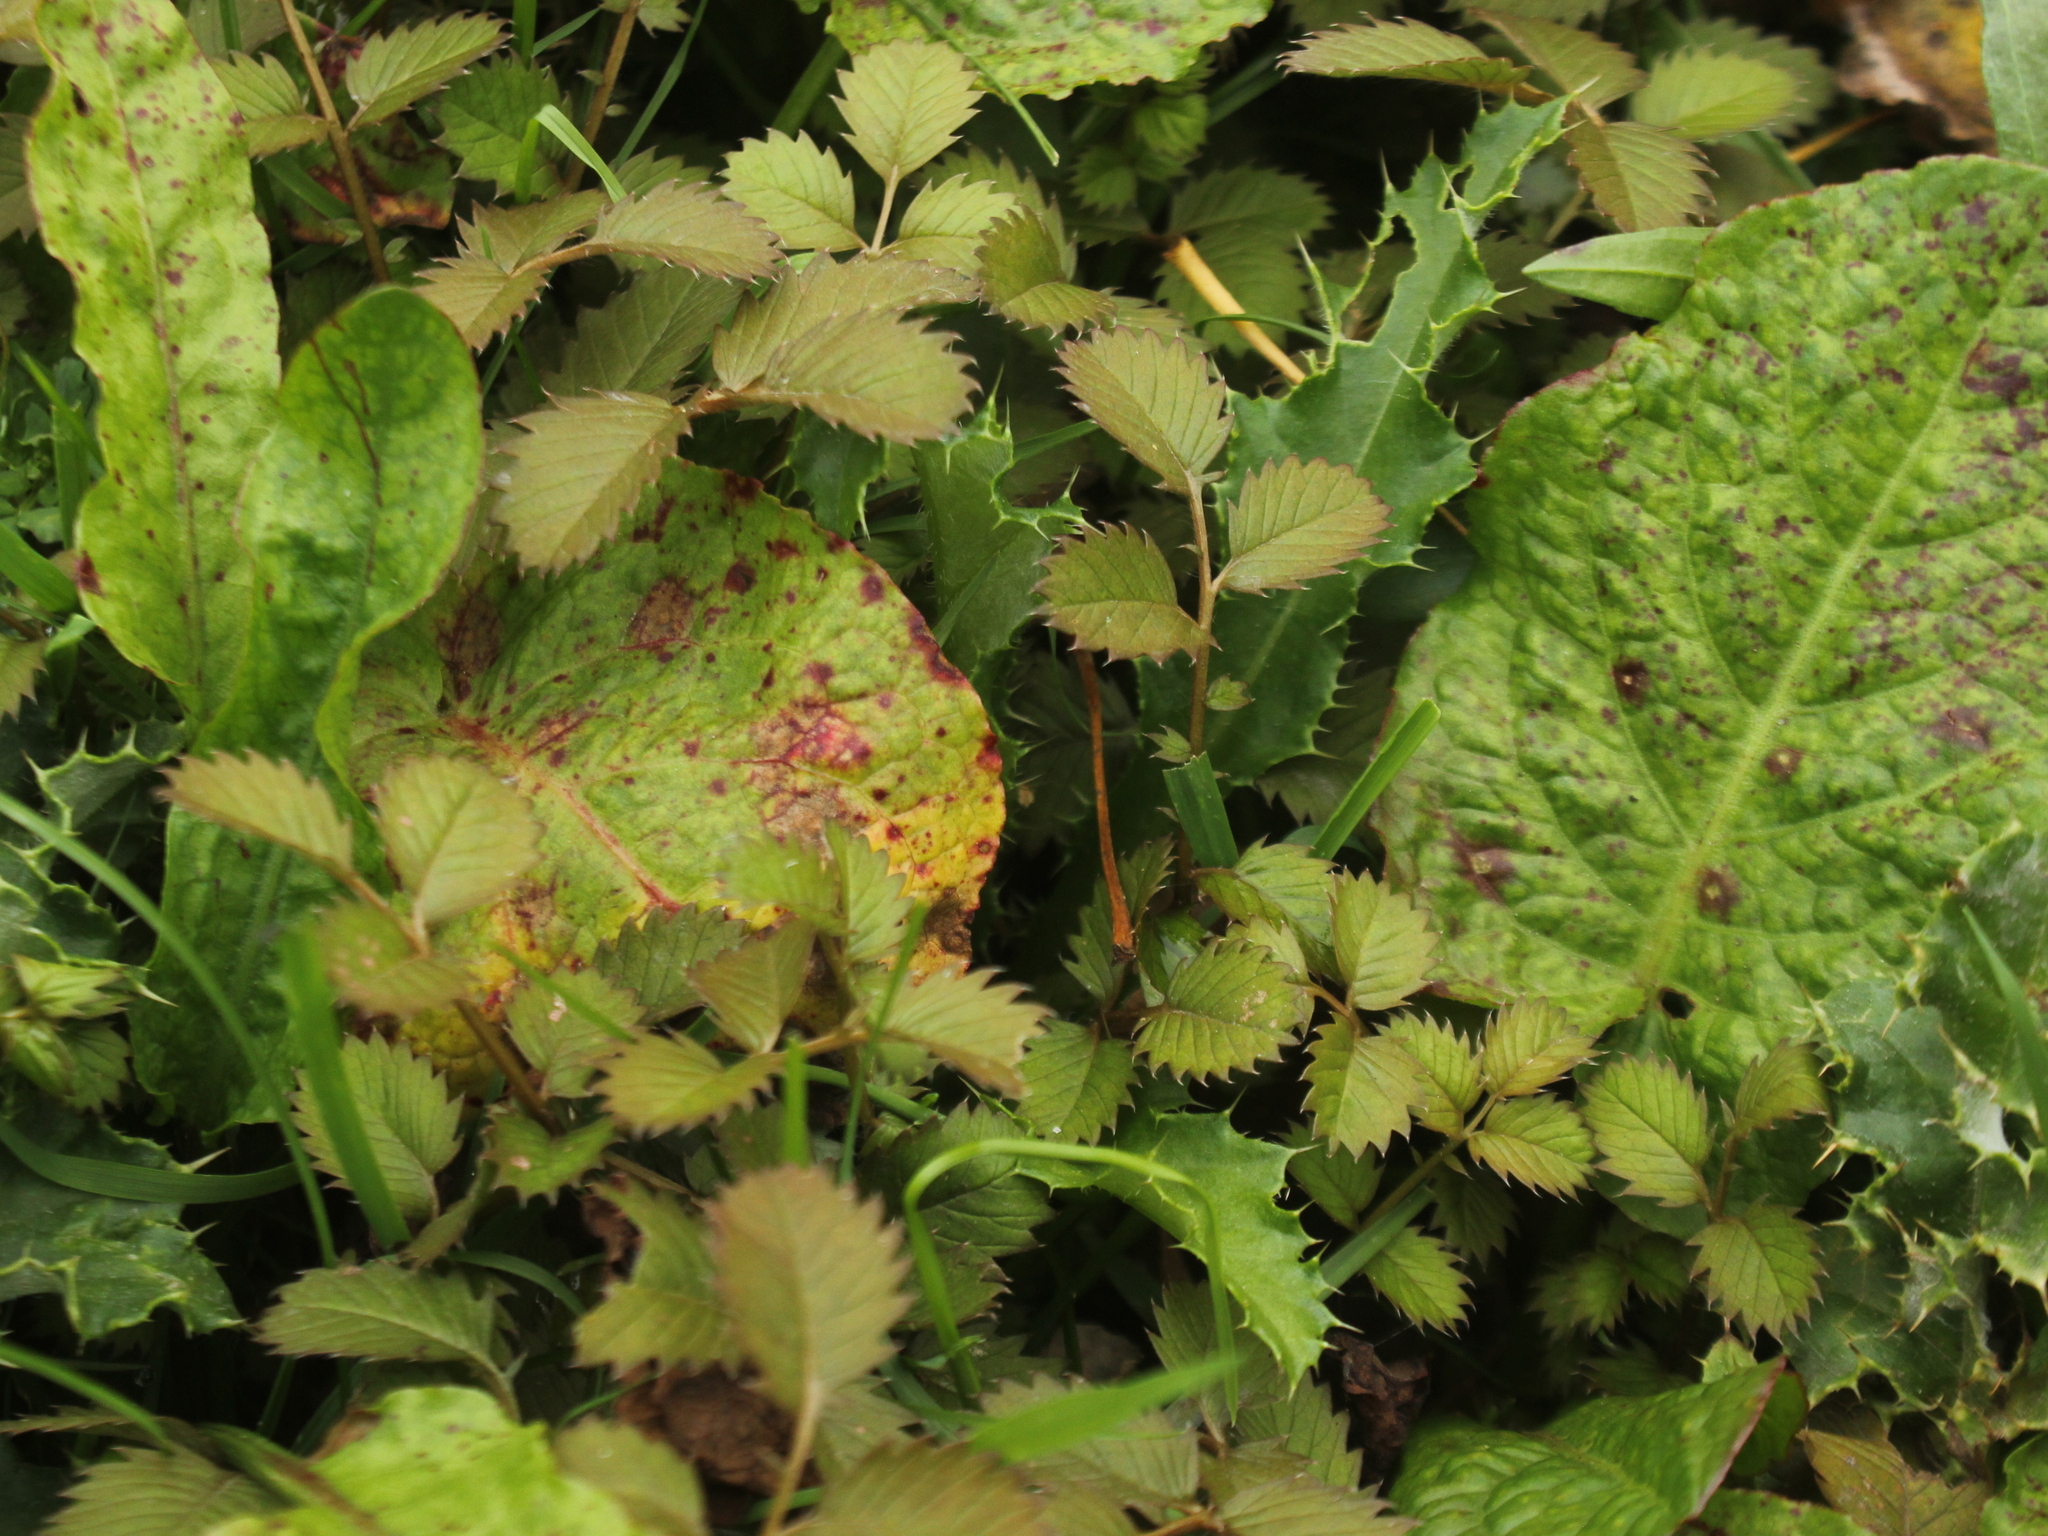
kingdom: Plantae
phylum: Tracheophyta
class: Magnoliopsida
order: Rosales
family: Rosaceae
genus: Argentina
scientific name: Argentina anserinoides
